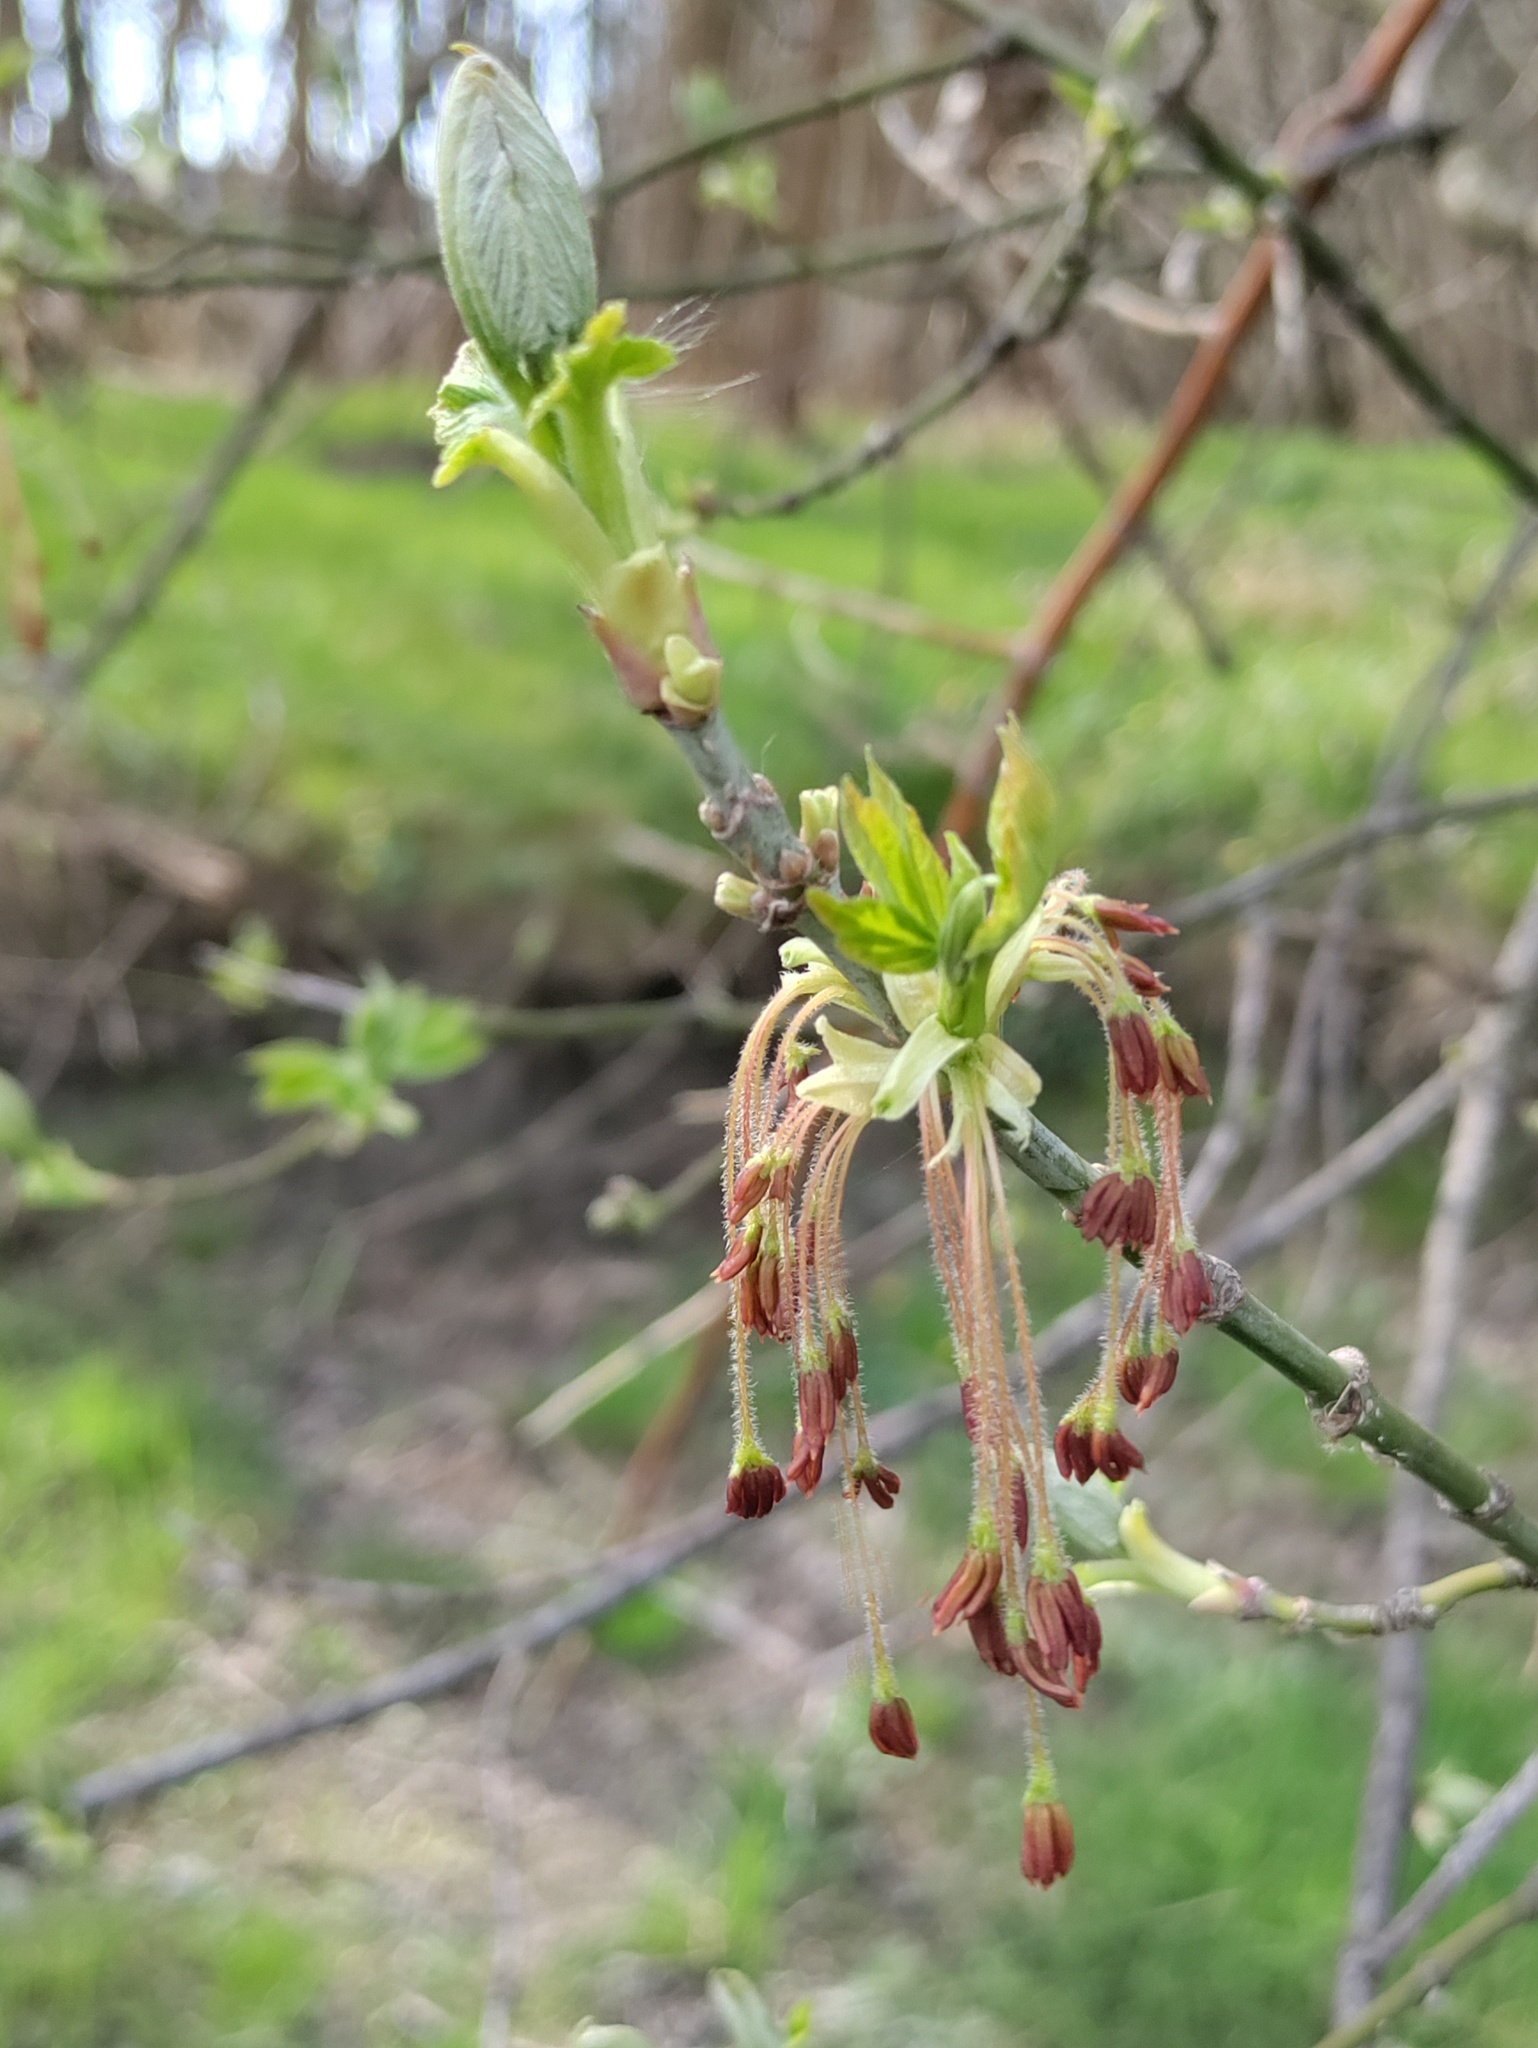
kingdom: Plantae
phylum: Tracheophyta
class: Magnoliopsida
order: Sapindales
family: Sapindaceae
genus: Acer
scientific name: Acer negundo
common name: Ashleaf maple
